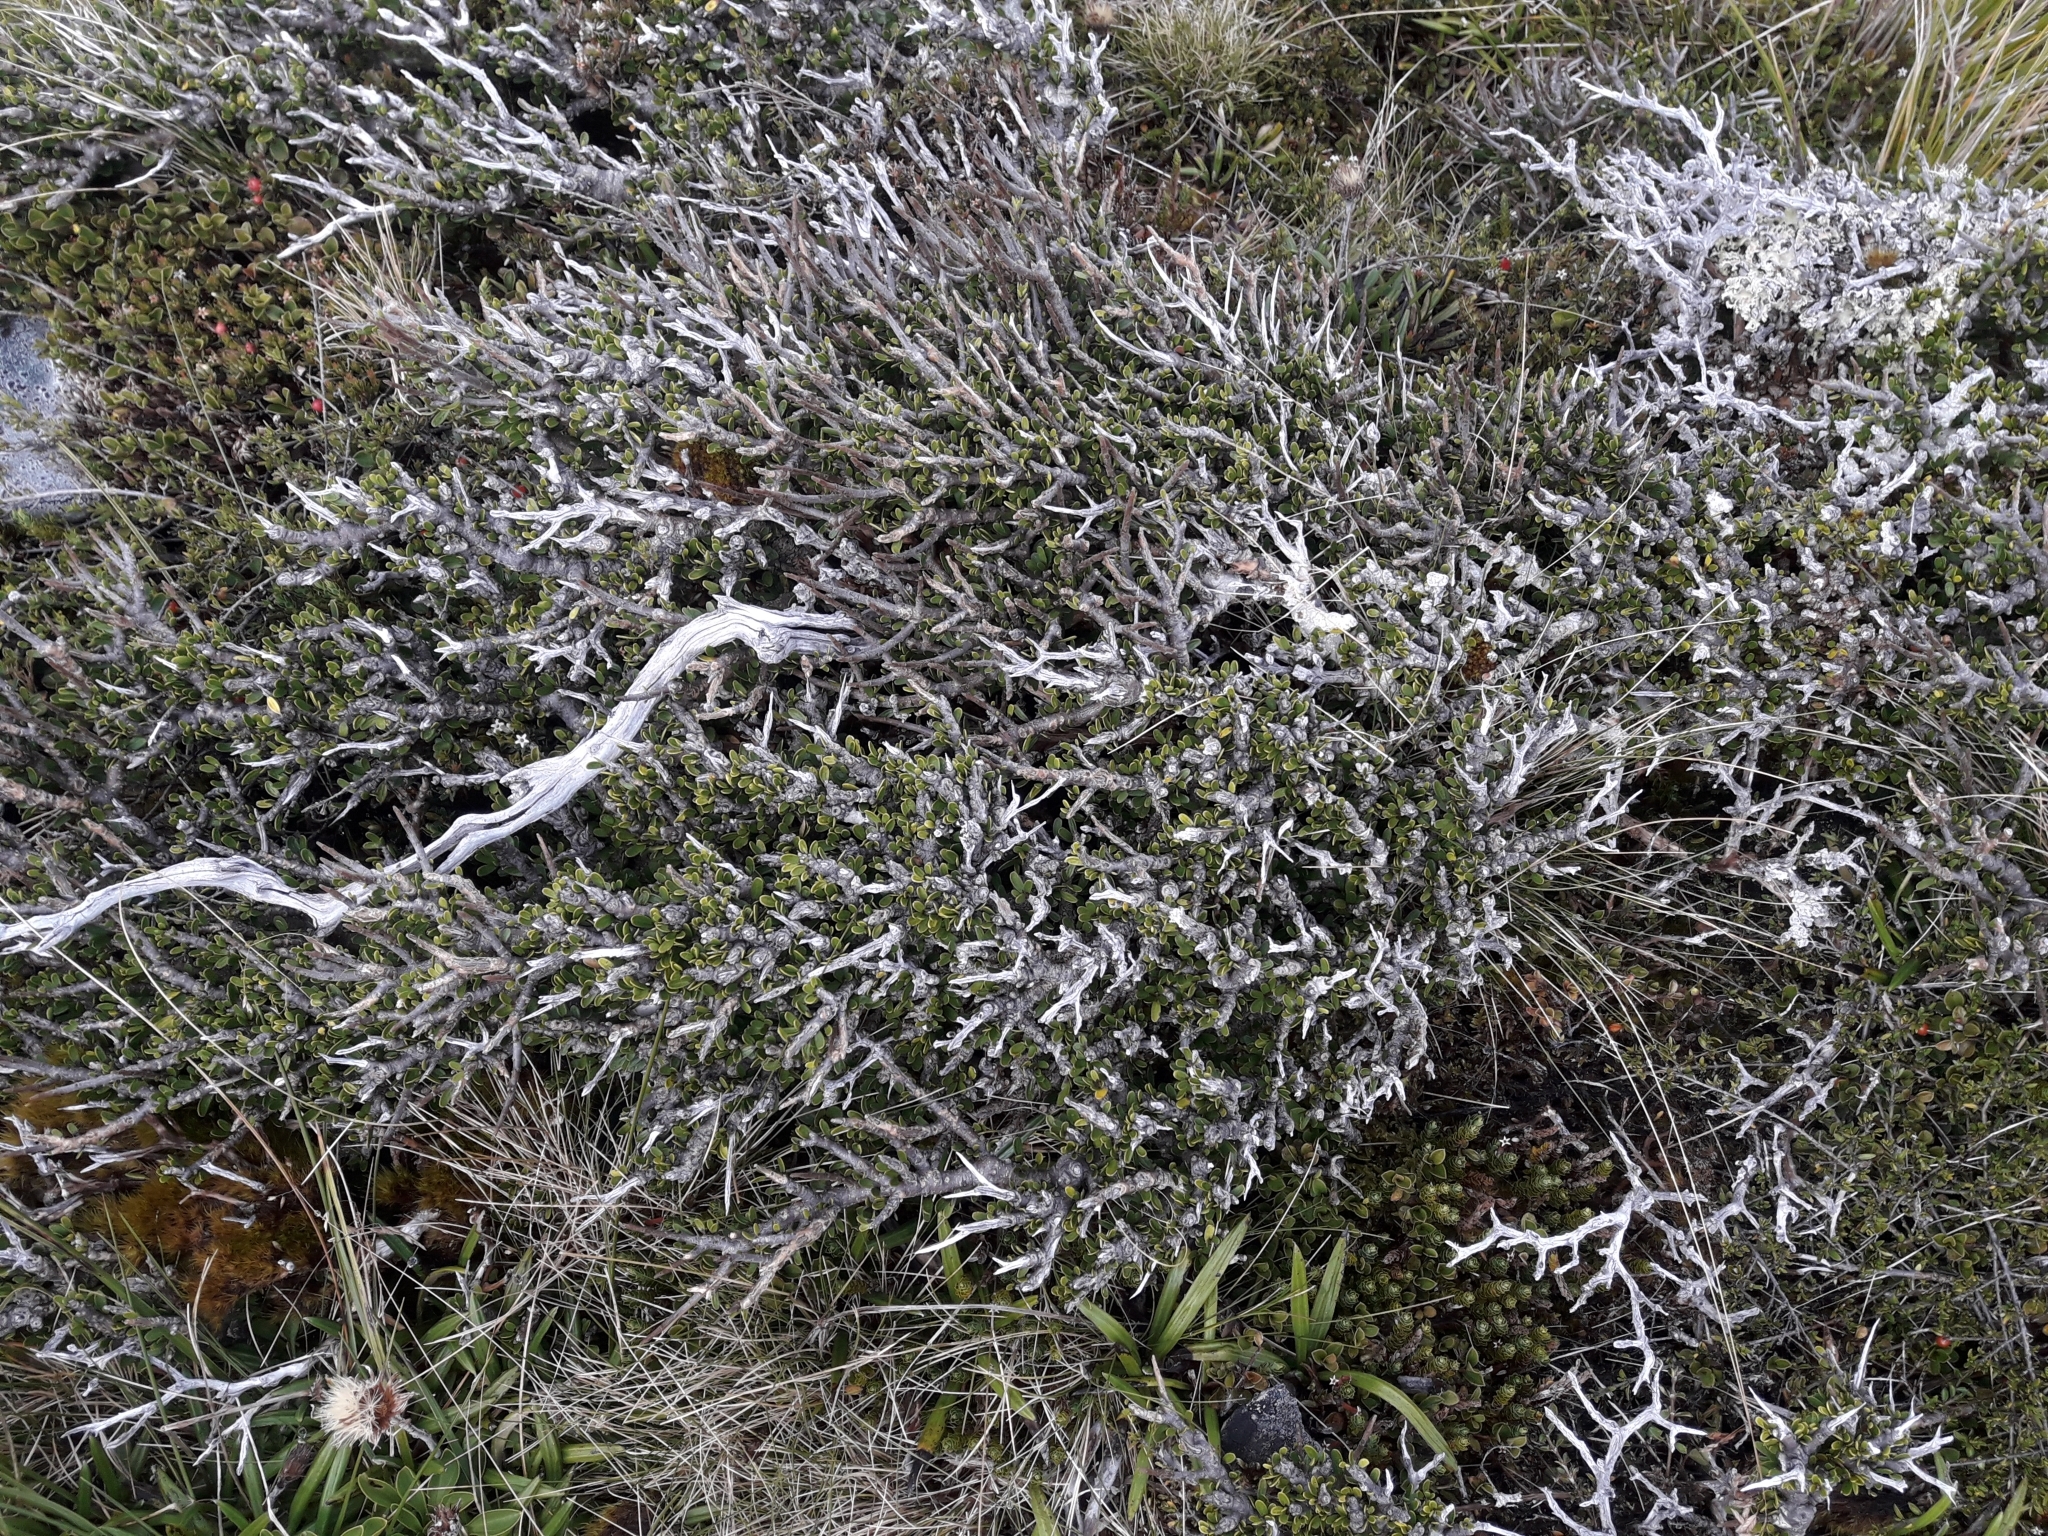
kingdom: Plantae
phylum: Tracheophyta
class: Magnoliopsida
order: Malpighiales
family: Violaceae
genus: Melicytus
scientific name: Melicytus alpinus
